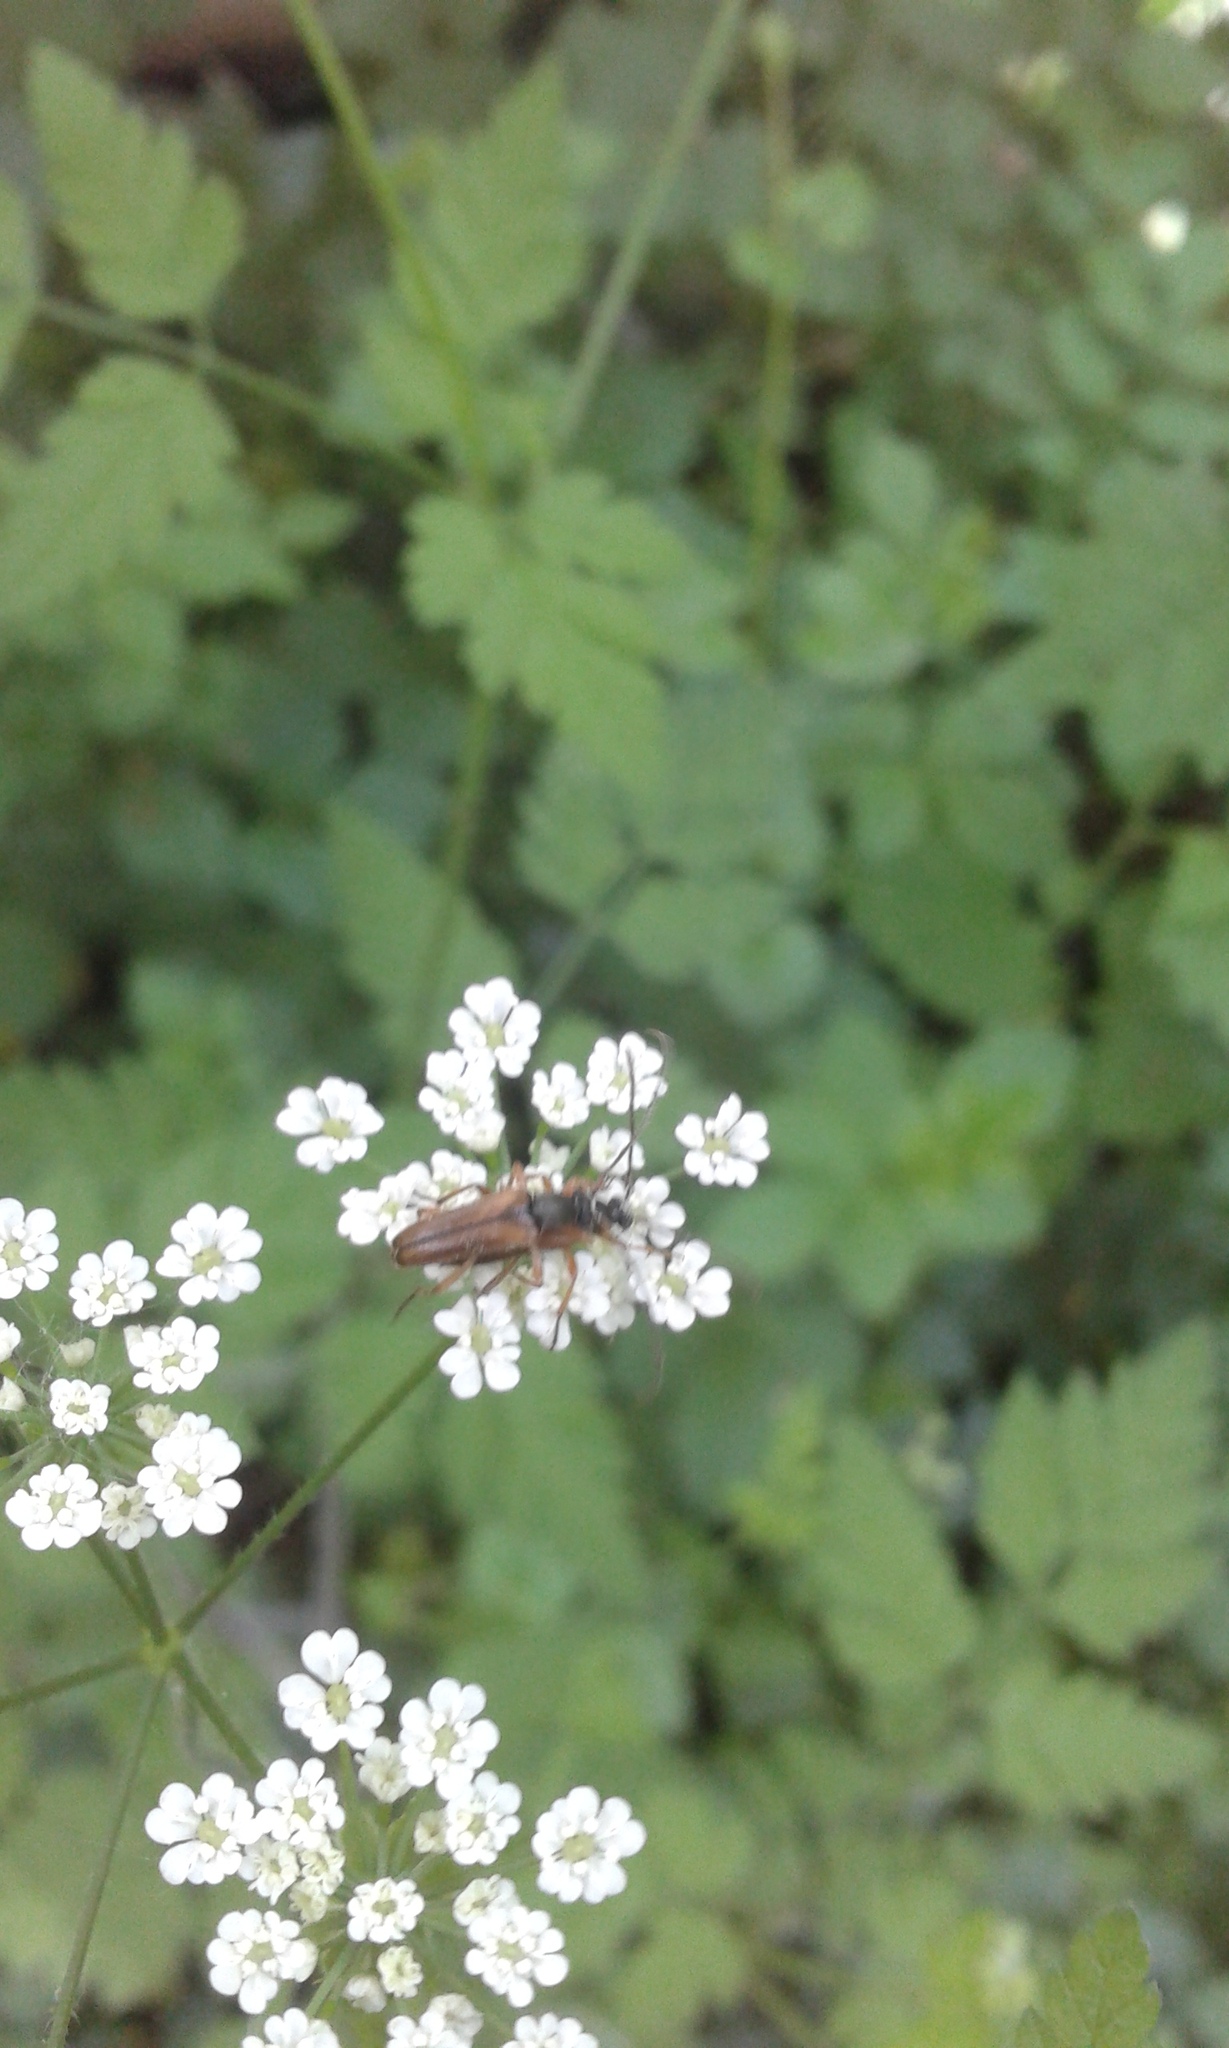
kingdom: Animalia
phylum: Arthropoda
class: Insecta
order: Coleoptera
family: Cerambycidae
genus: Alosterna
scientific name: Alosterna tabacicolor
